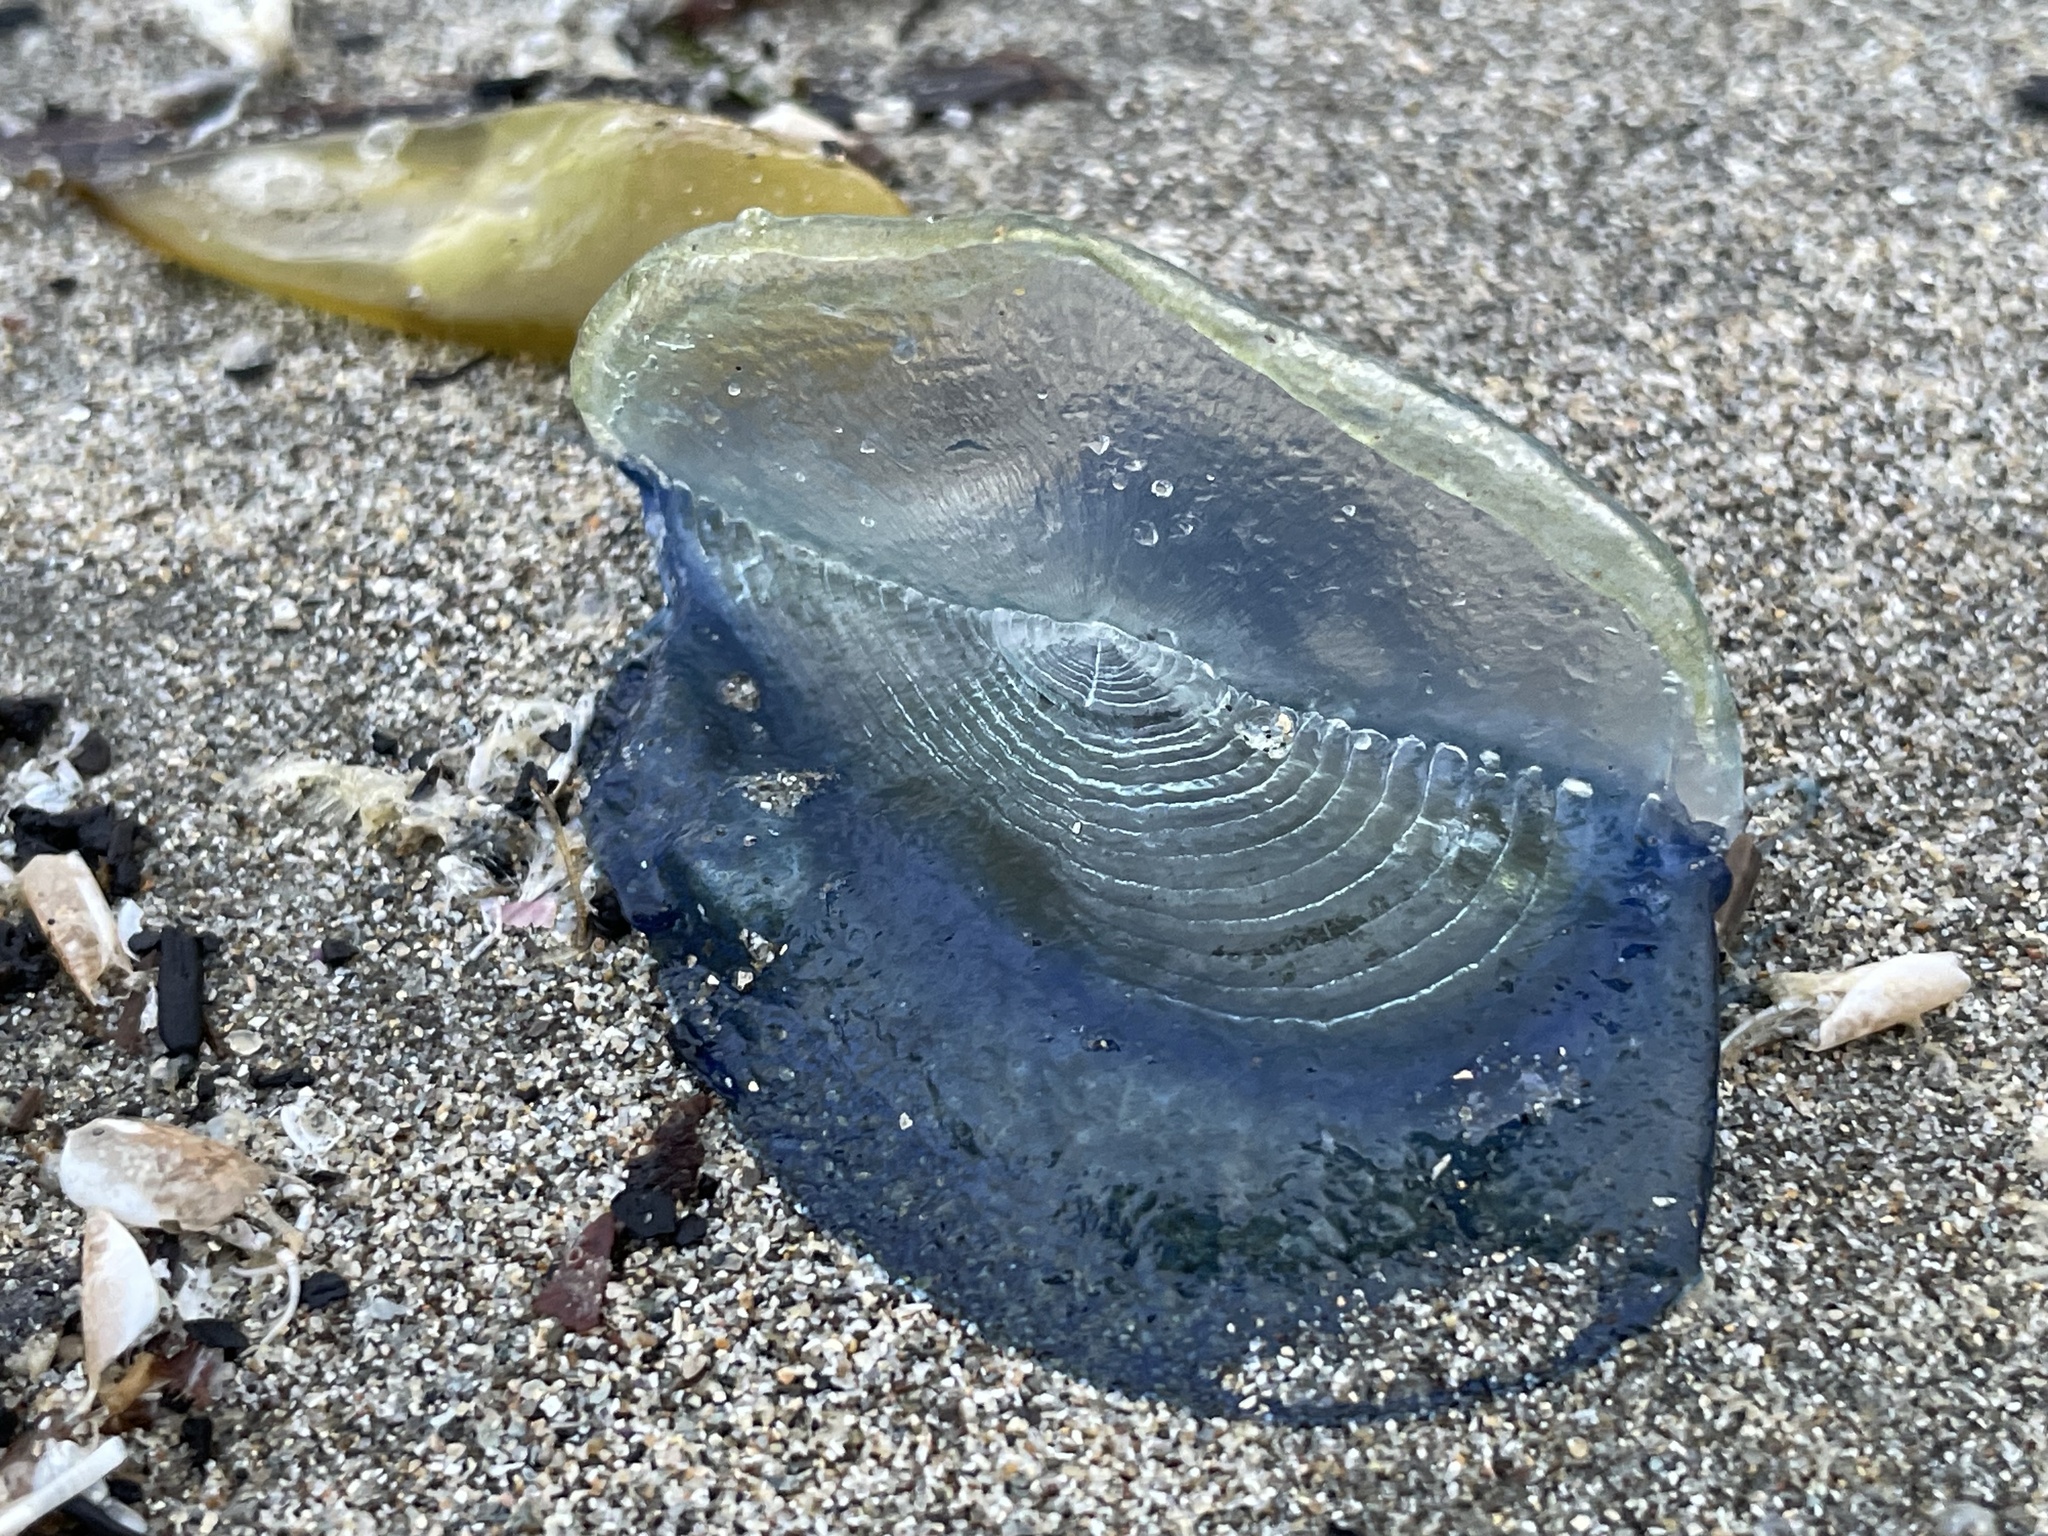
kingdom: Animalia
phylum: Cnidaria
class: Hydrozoa
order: Anthoathecata
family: Porpitidae
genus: Velella
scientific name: Velella velella
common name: By-the-wind-sailor
